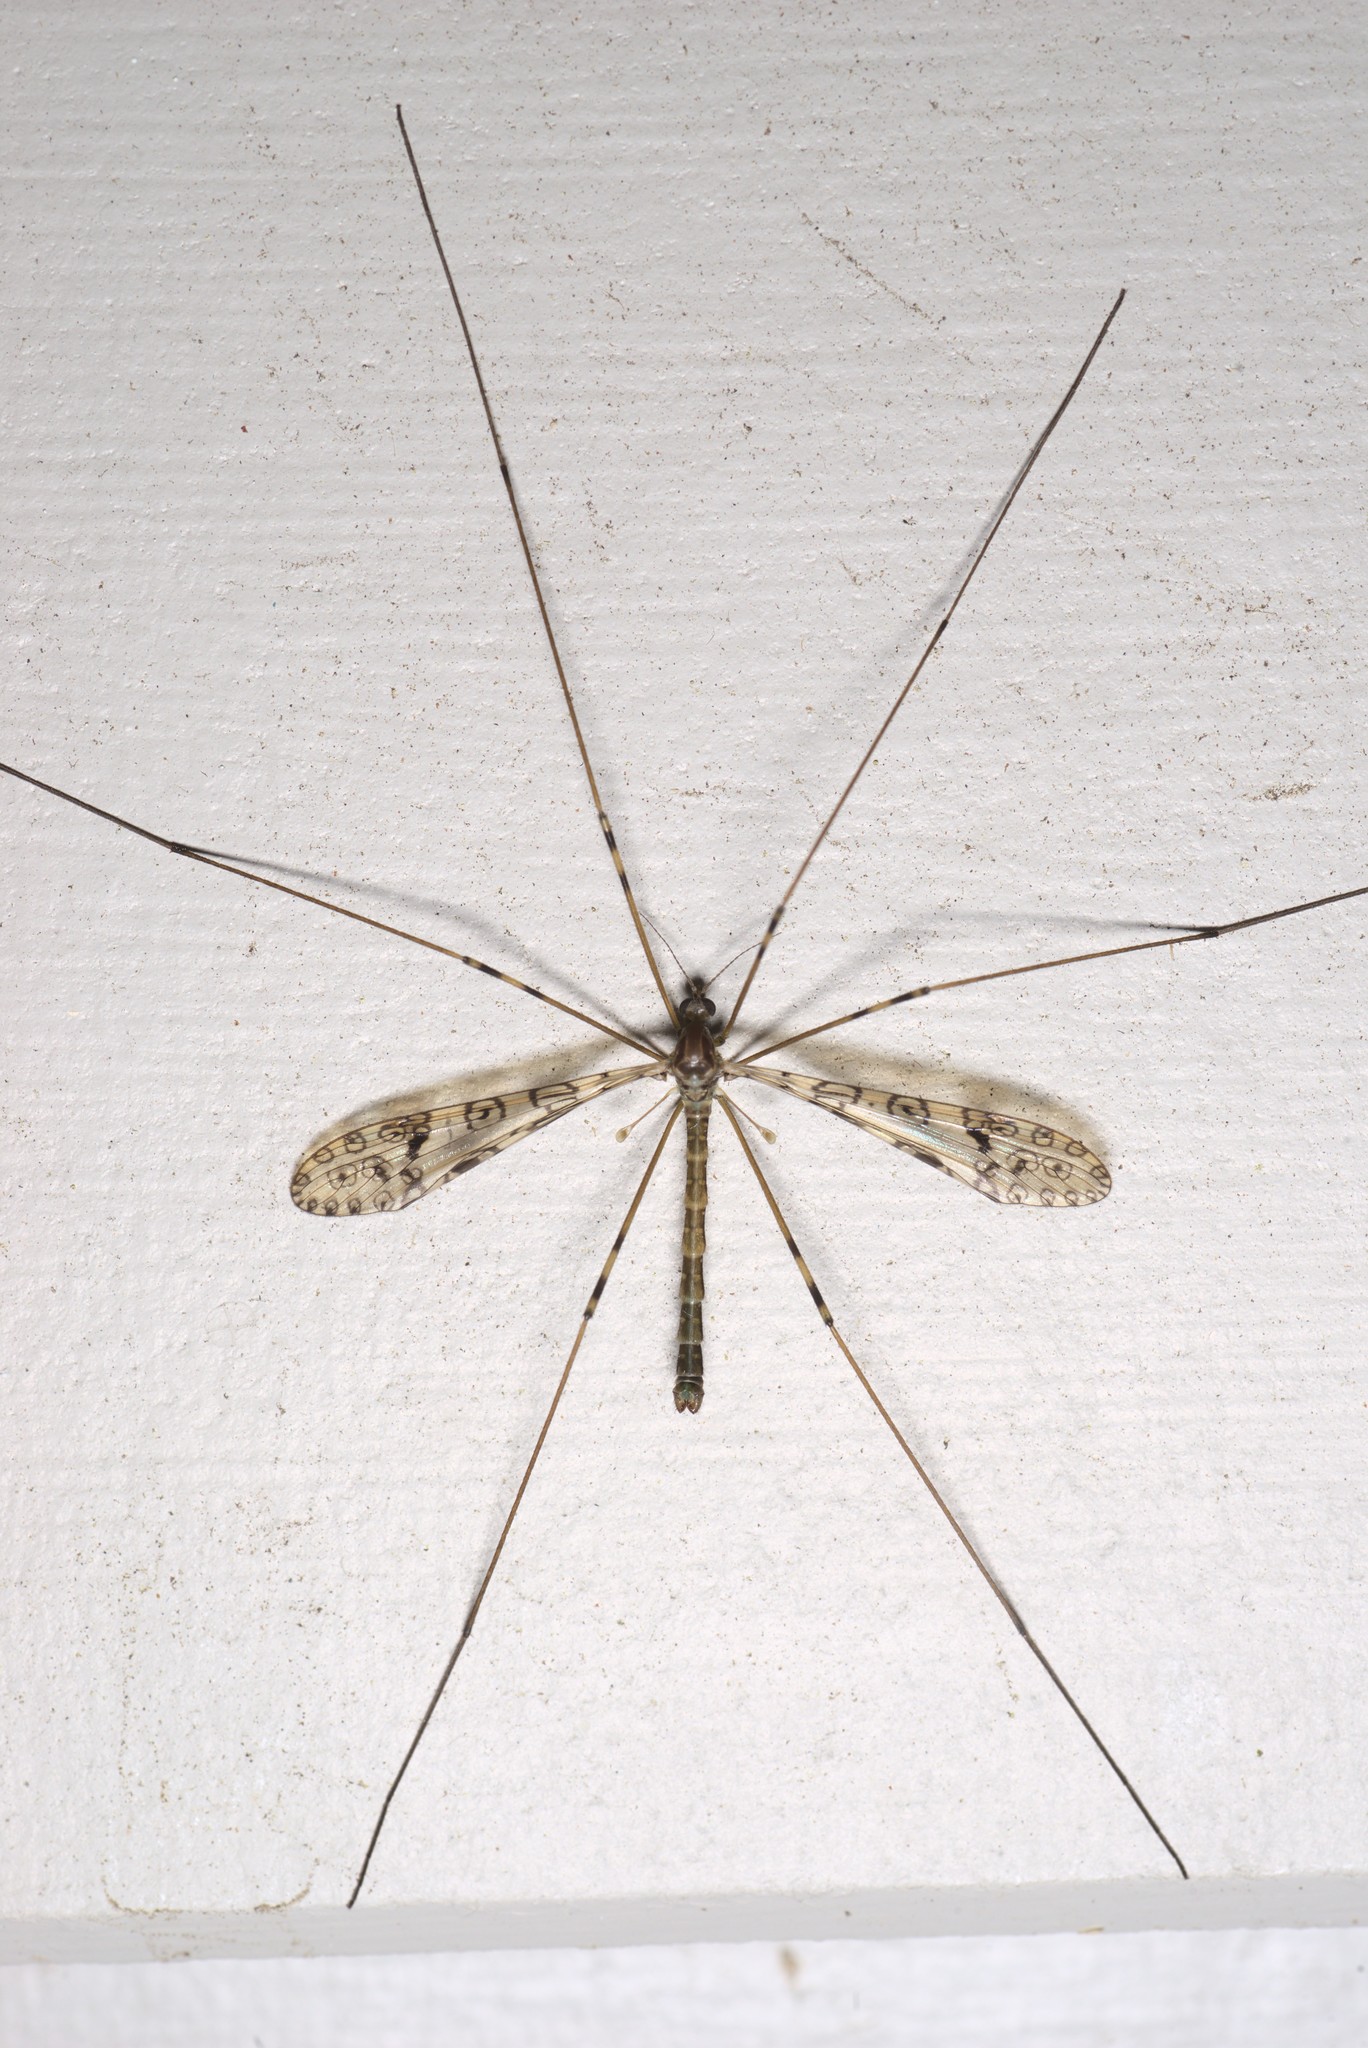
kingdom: Animalia
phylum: Arthropoda
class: Insecta
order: Diptera
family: Limoniidae
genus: Austrolimnophila
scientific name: Austrolimnophila argus
